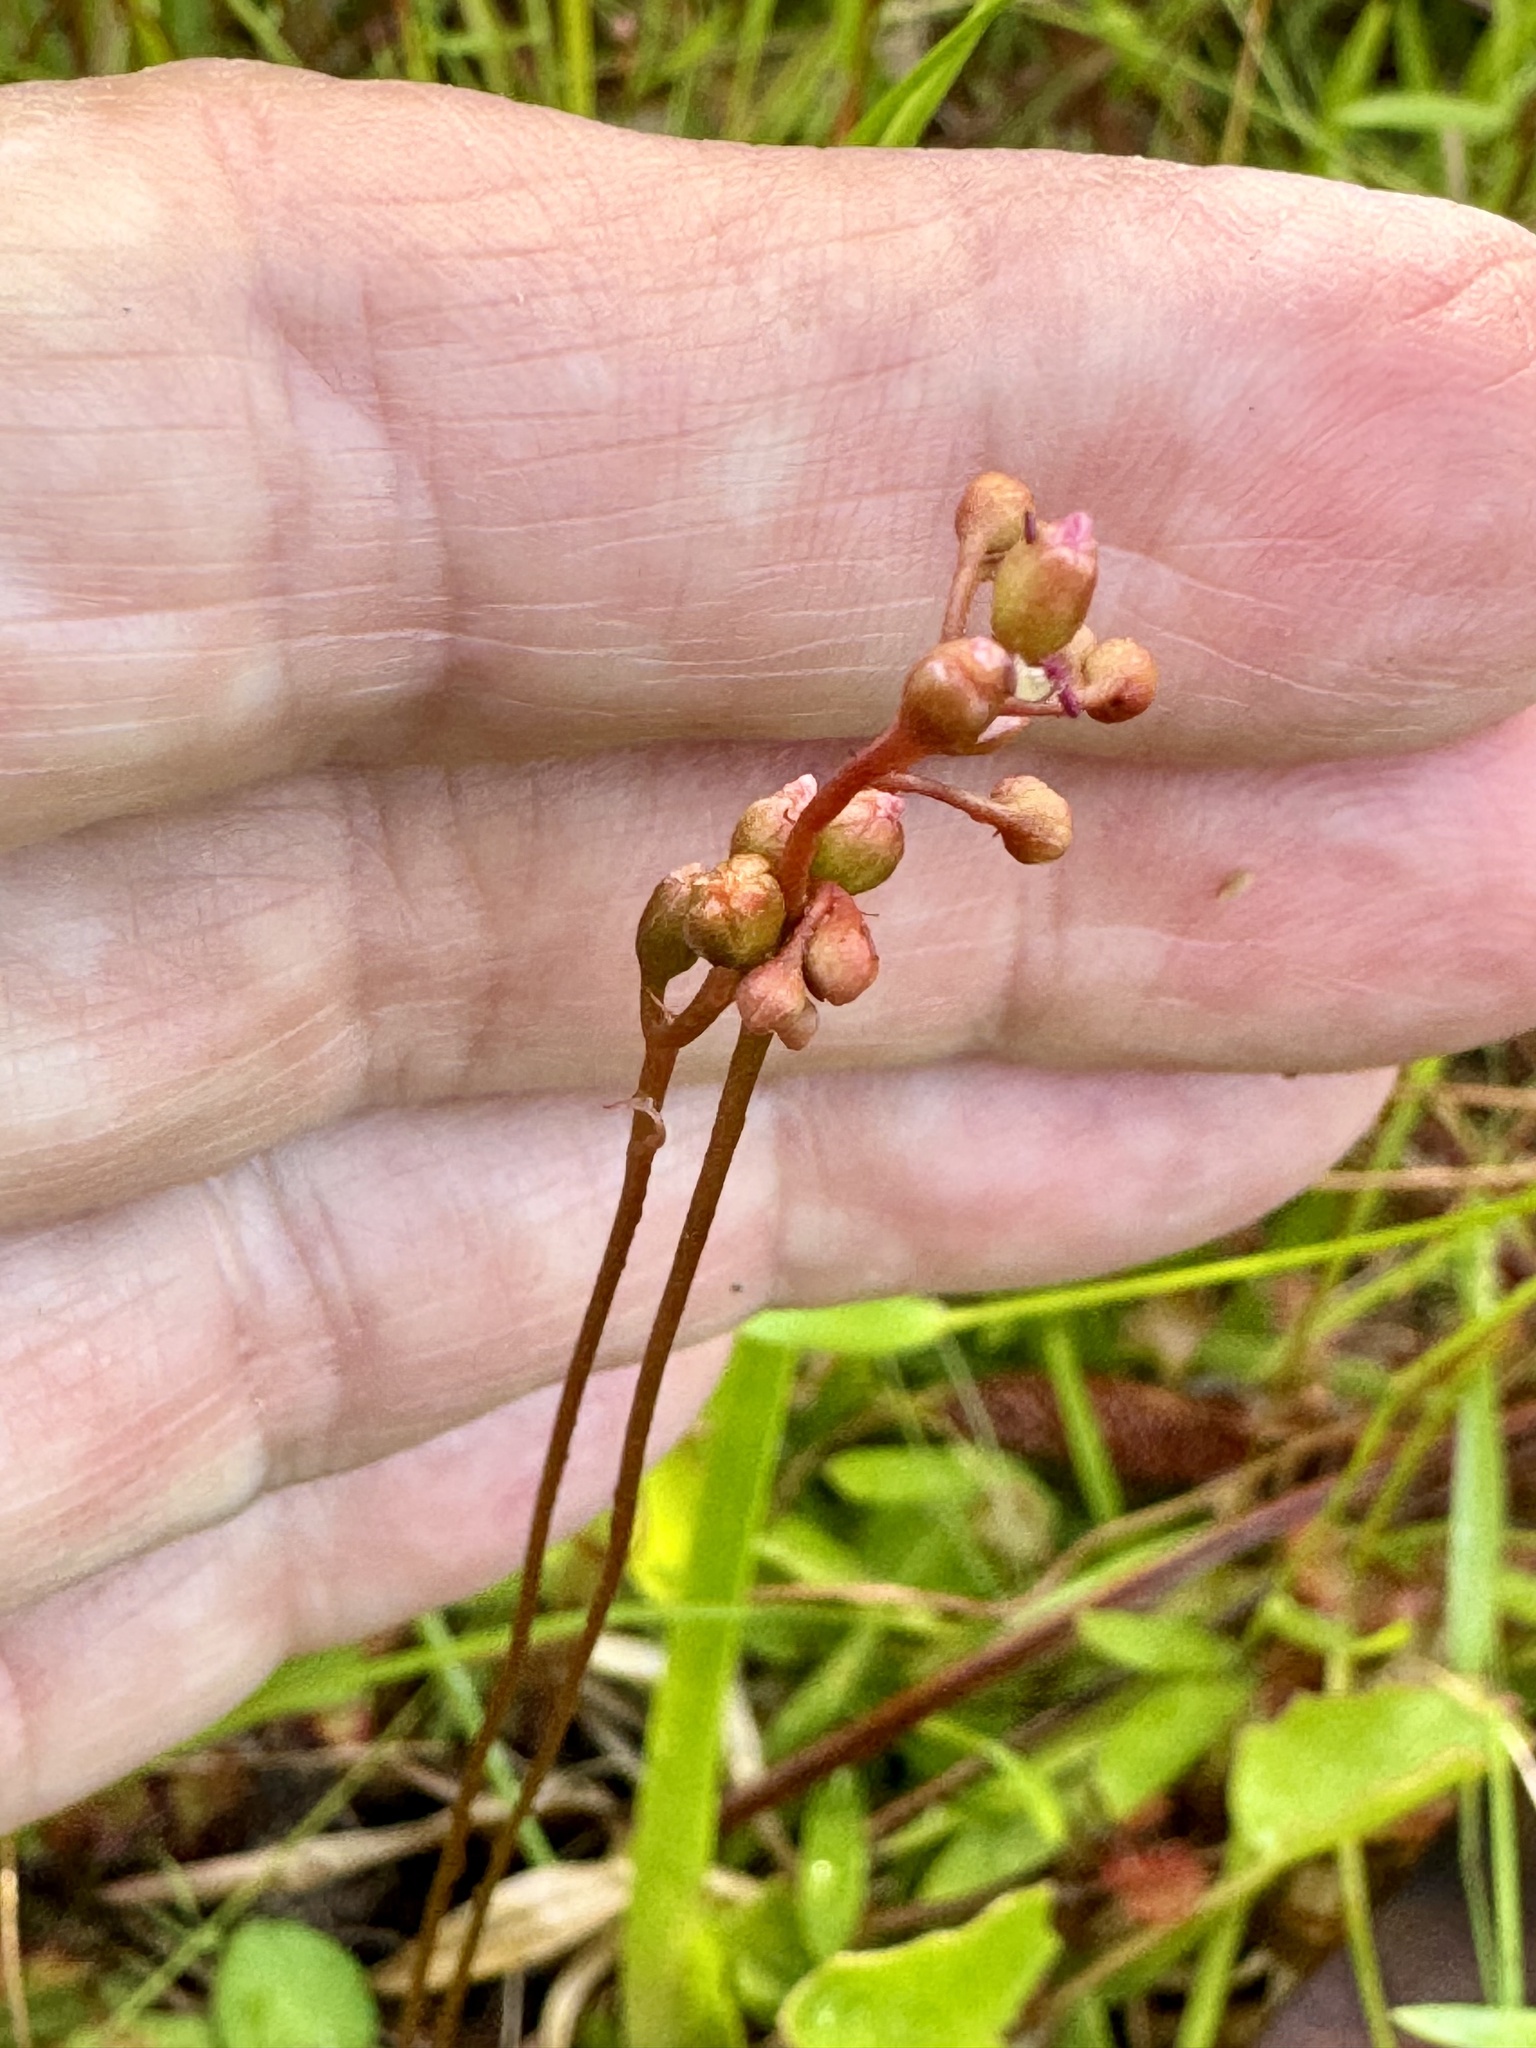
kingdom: Plantae
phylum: Tracheophyta
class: Magnoliopsida
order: Caryophyllales
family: Droseraceae
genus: Drosera
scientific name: Drosera capillaris
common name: Pink sundew
